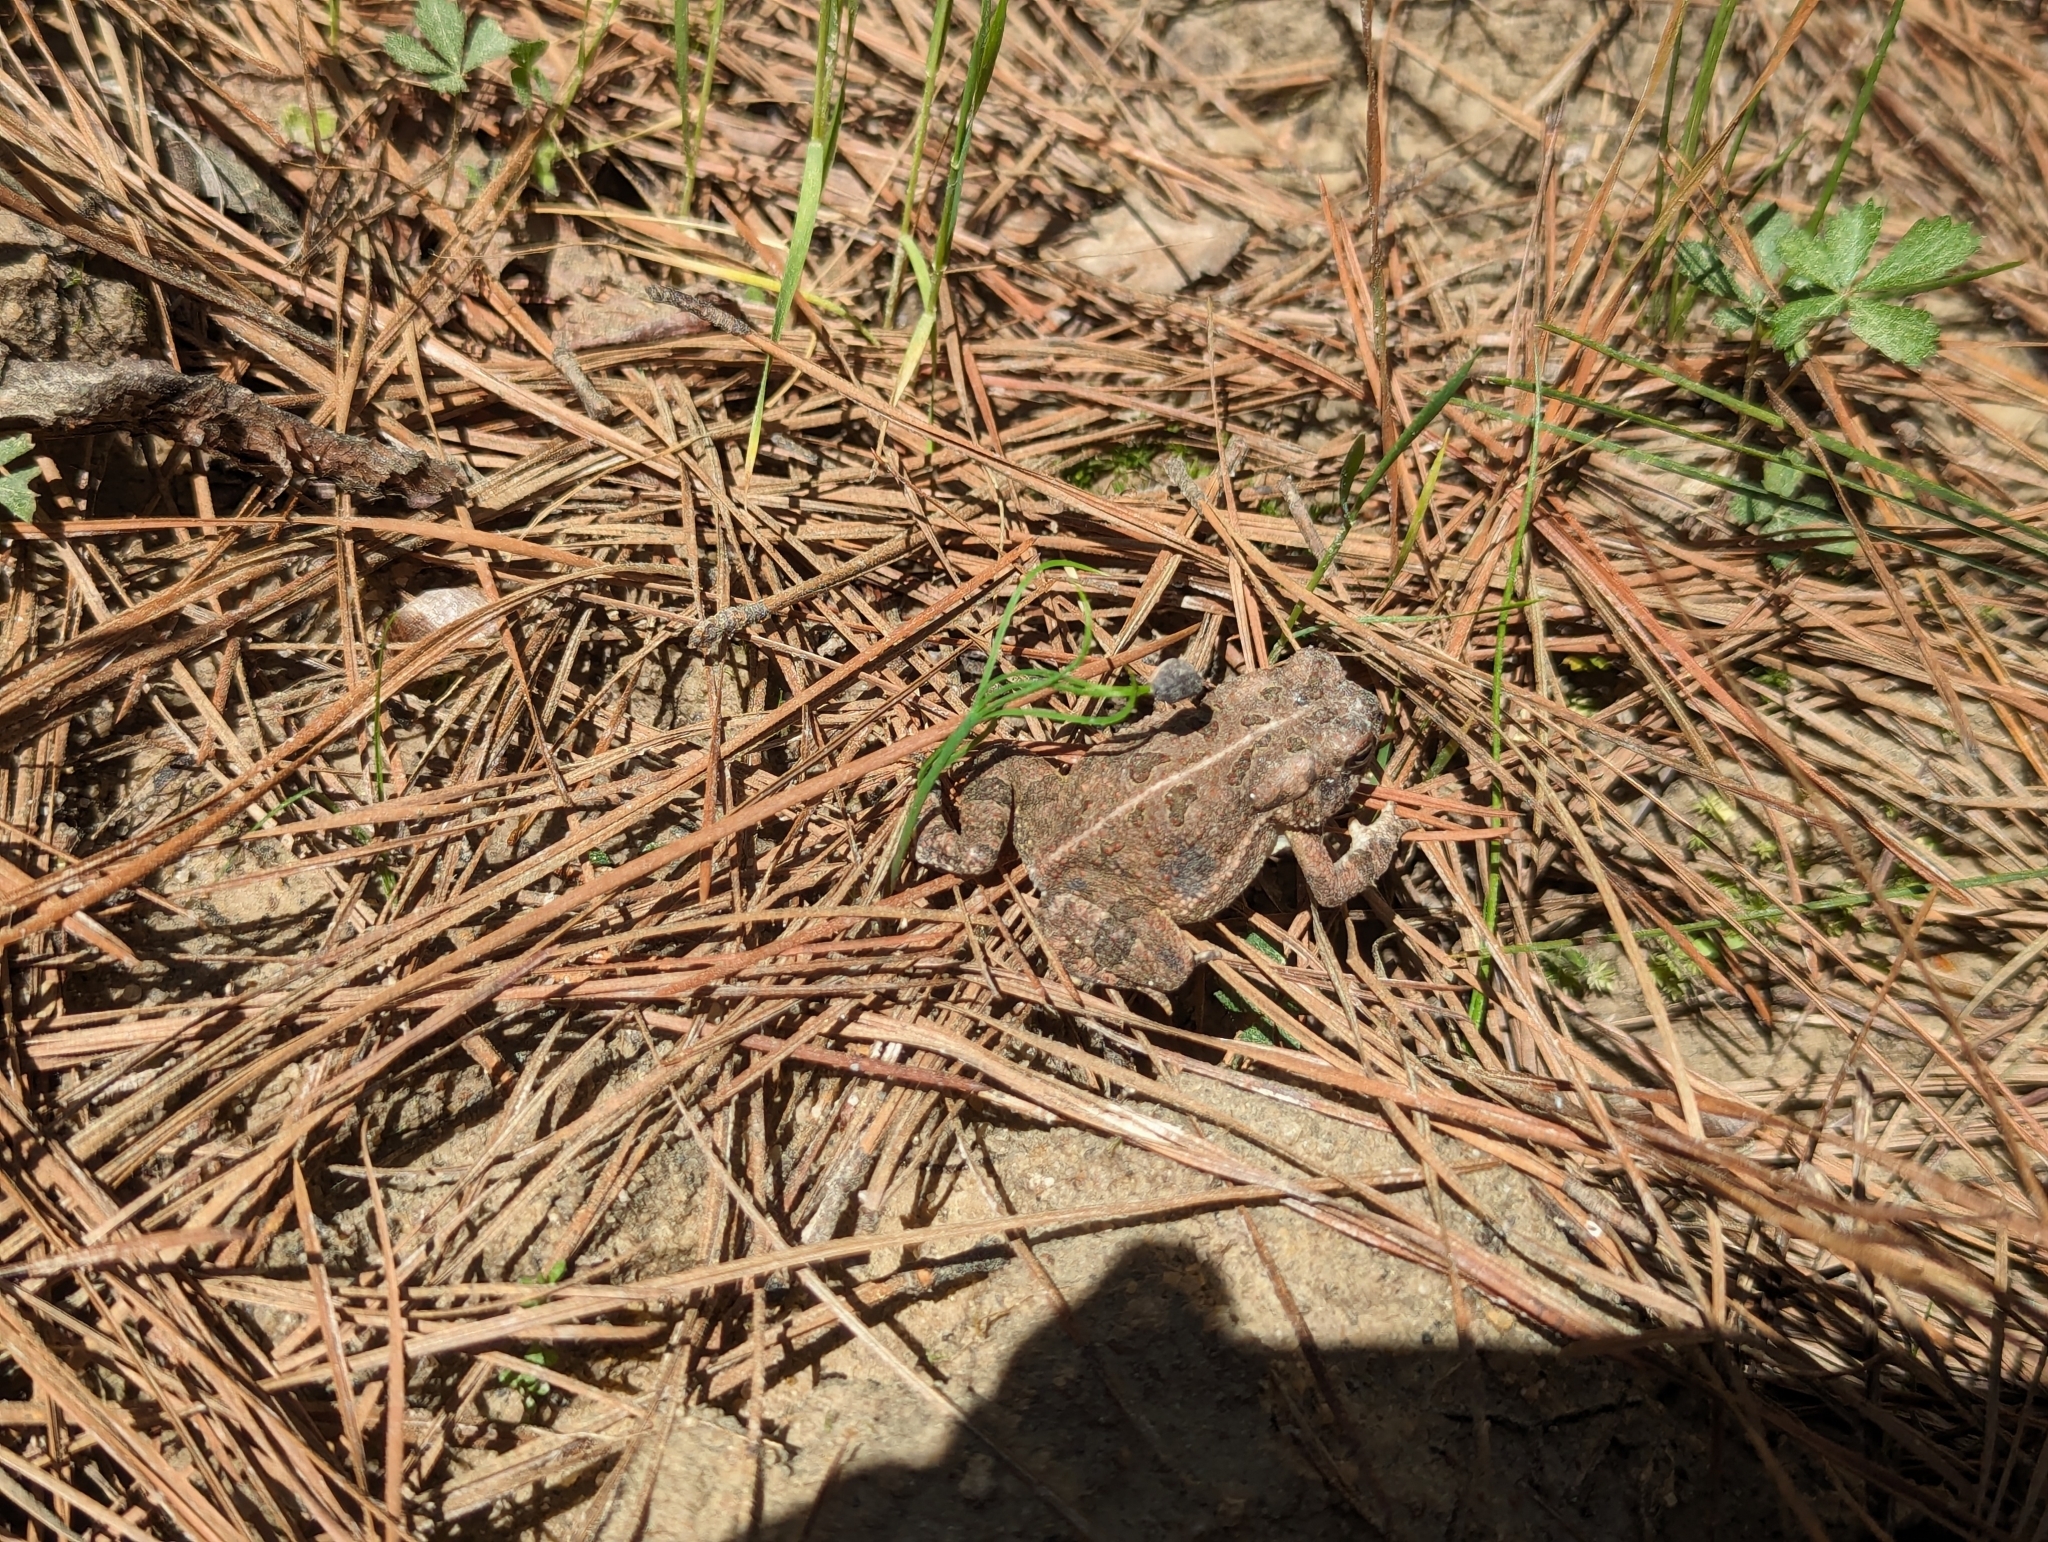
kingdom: Animalia
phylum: Chordata
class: Amphibia
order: Anura
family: Bufonidae
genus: Anaxyrus
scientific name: Anaxyrus fowleri
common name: Fowler's toad
